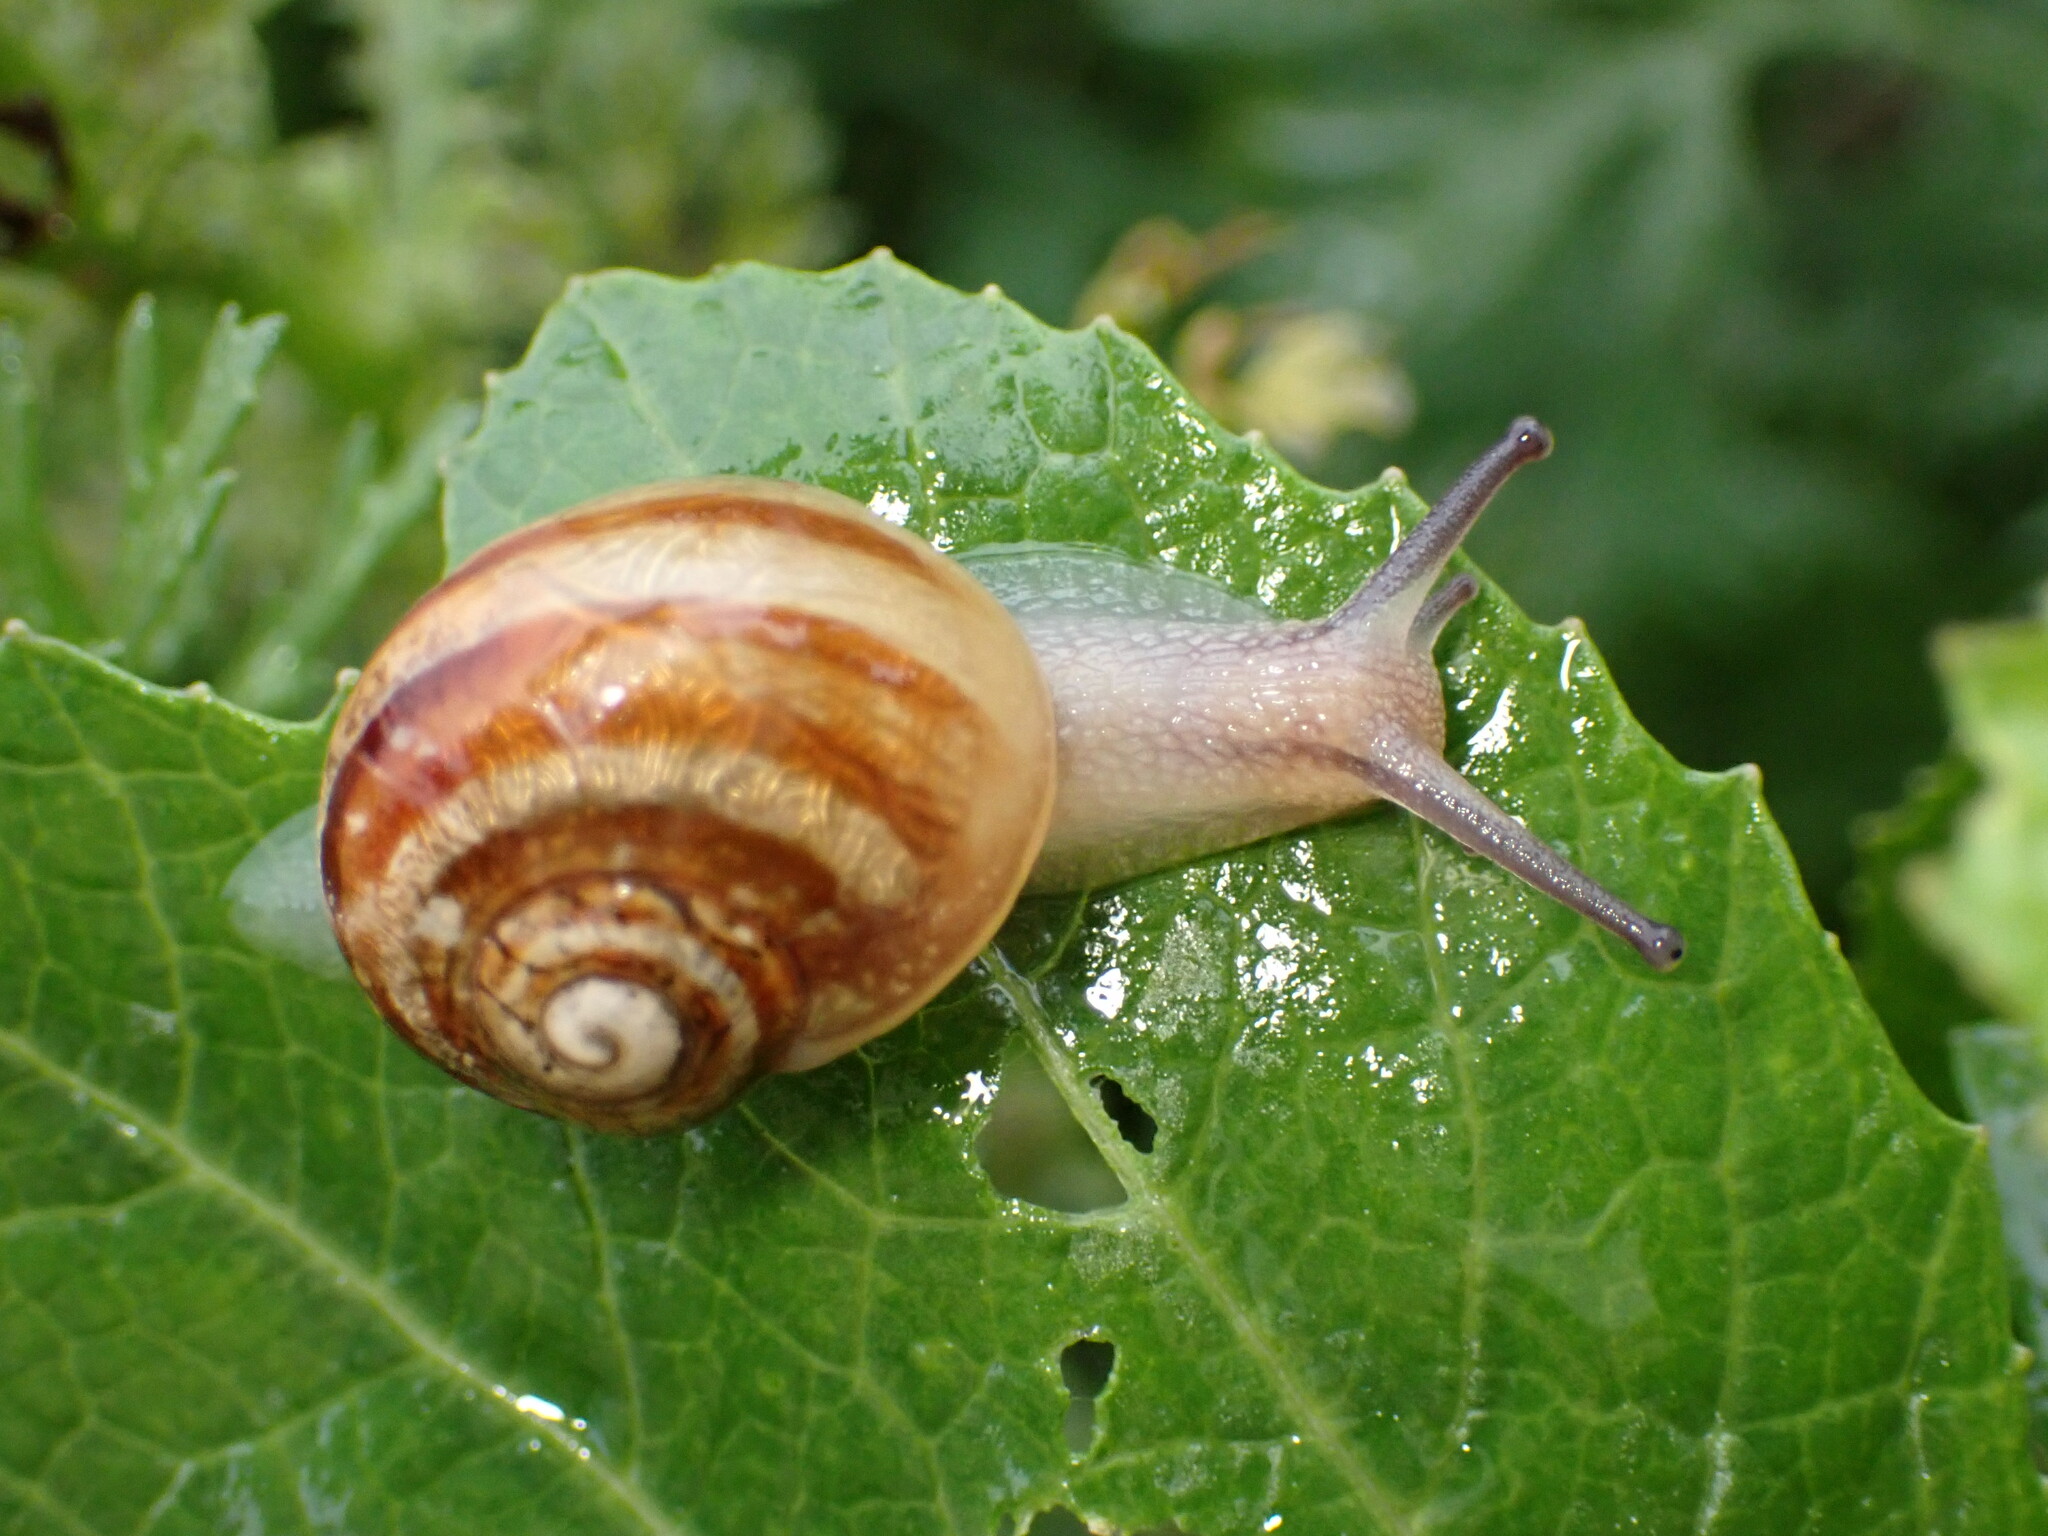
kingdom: Animalia
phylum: Mollusca
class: Gastropoda
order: Stylommatophora
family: Helicidae
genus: Cornu
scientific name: Cornu aspersum
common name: Brown garden snail
